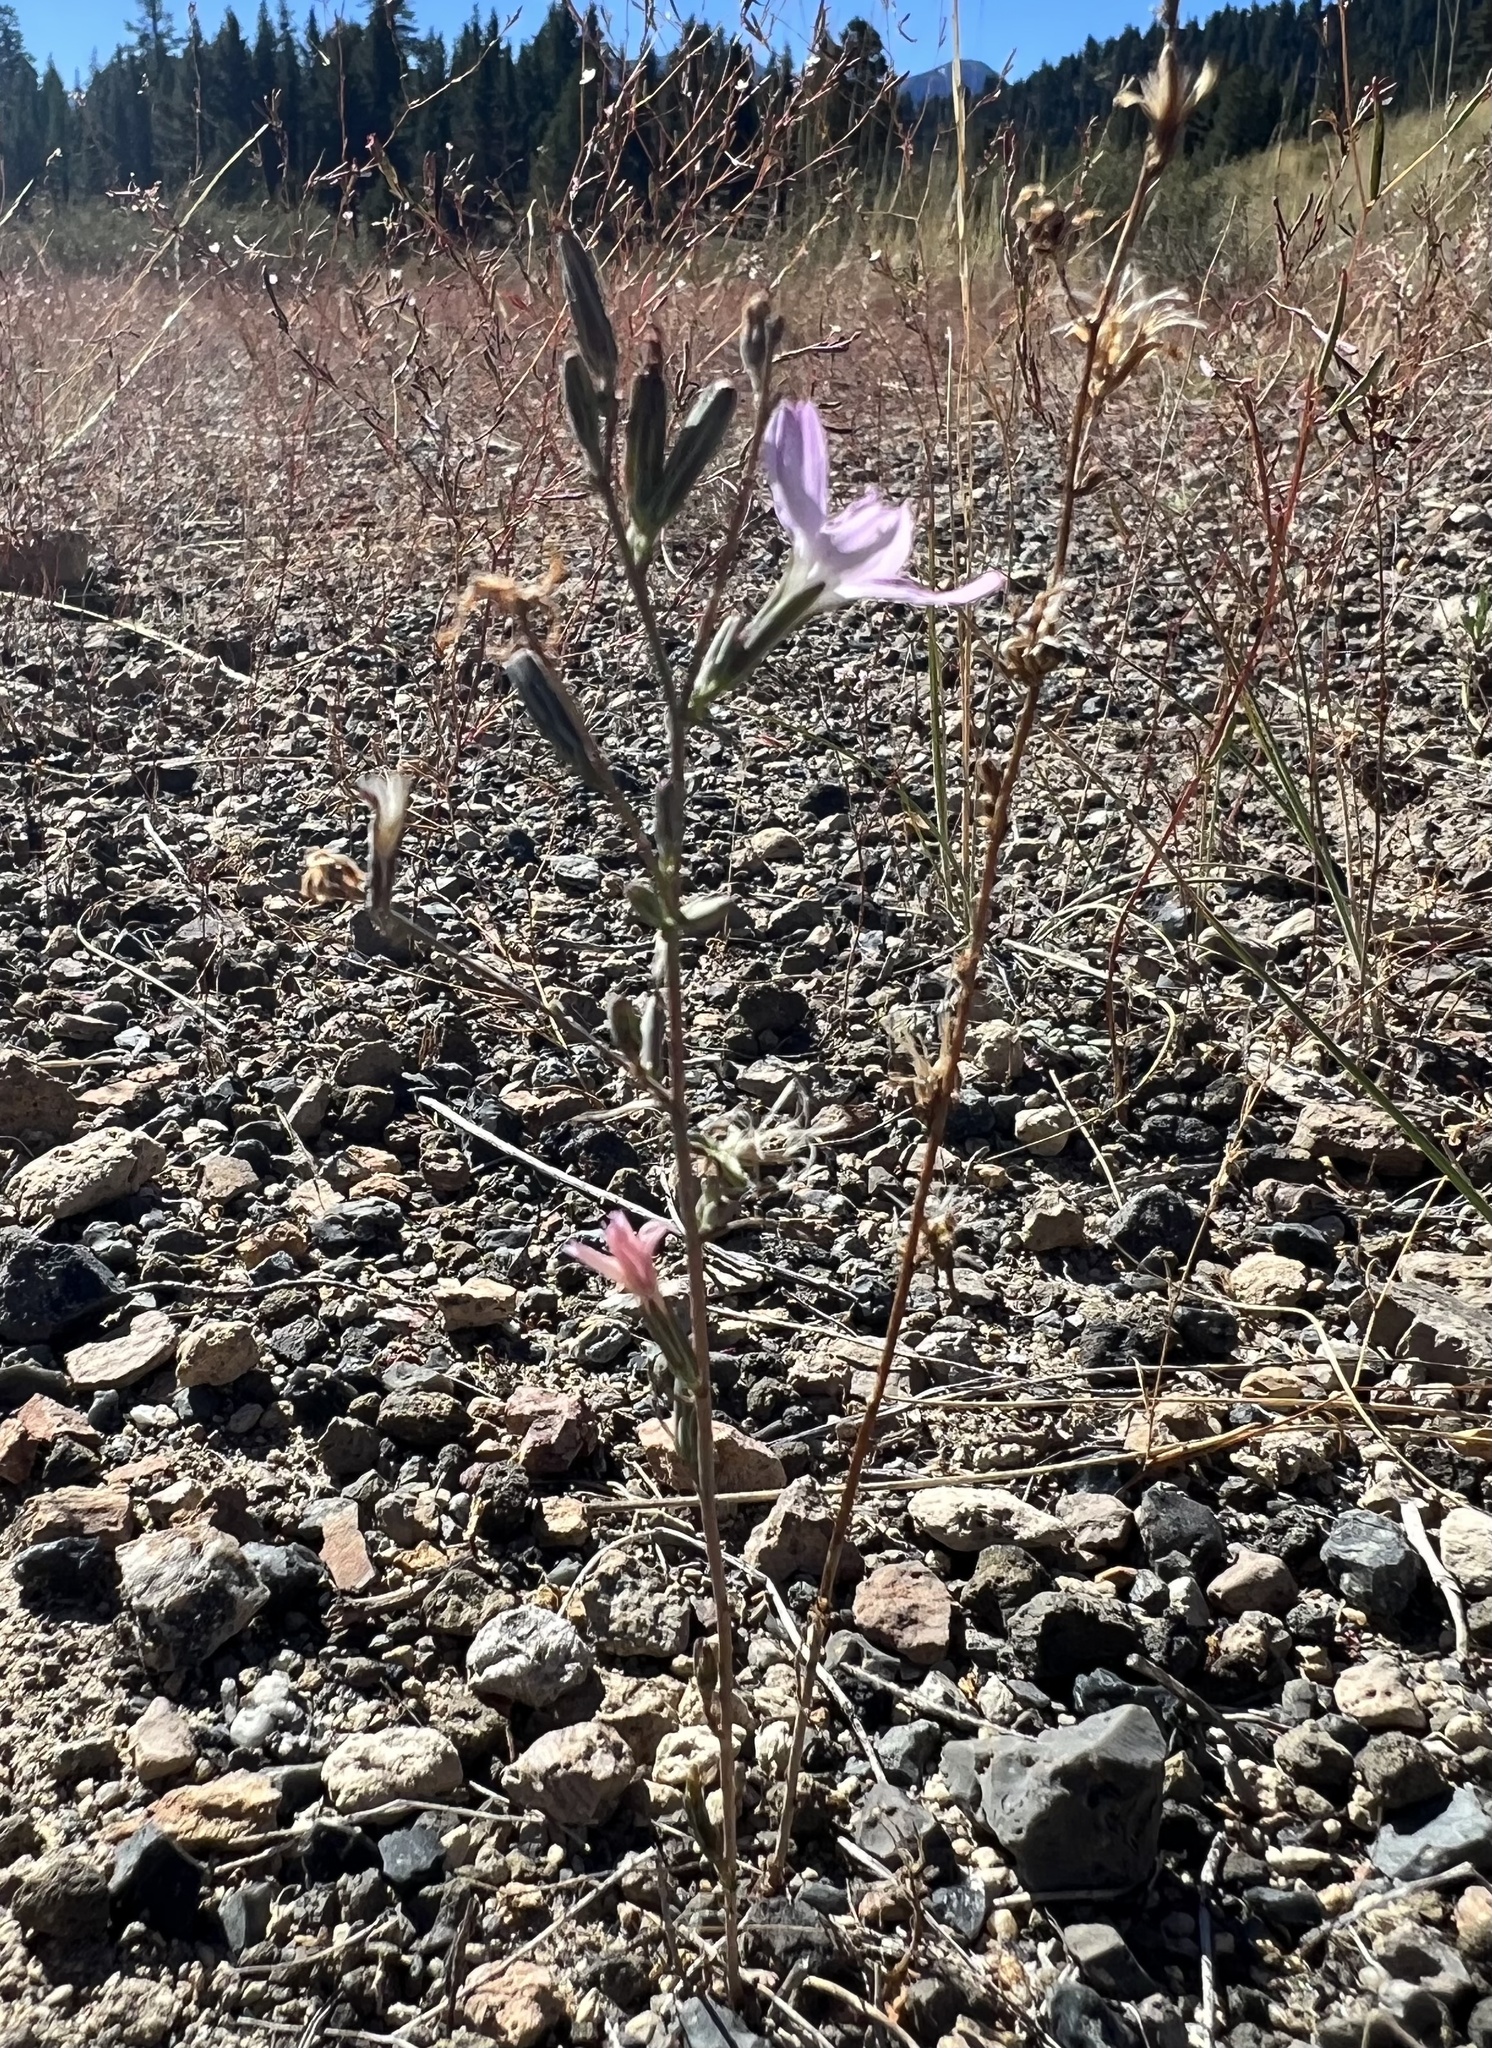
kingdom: Plantae
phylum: Tracheophyta
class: Magnoliopsida
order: Asterales
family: Asteraceae
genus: Stephanomeria
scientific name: Stephanomeria exigua
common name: Small wirelettuce
